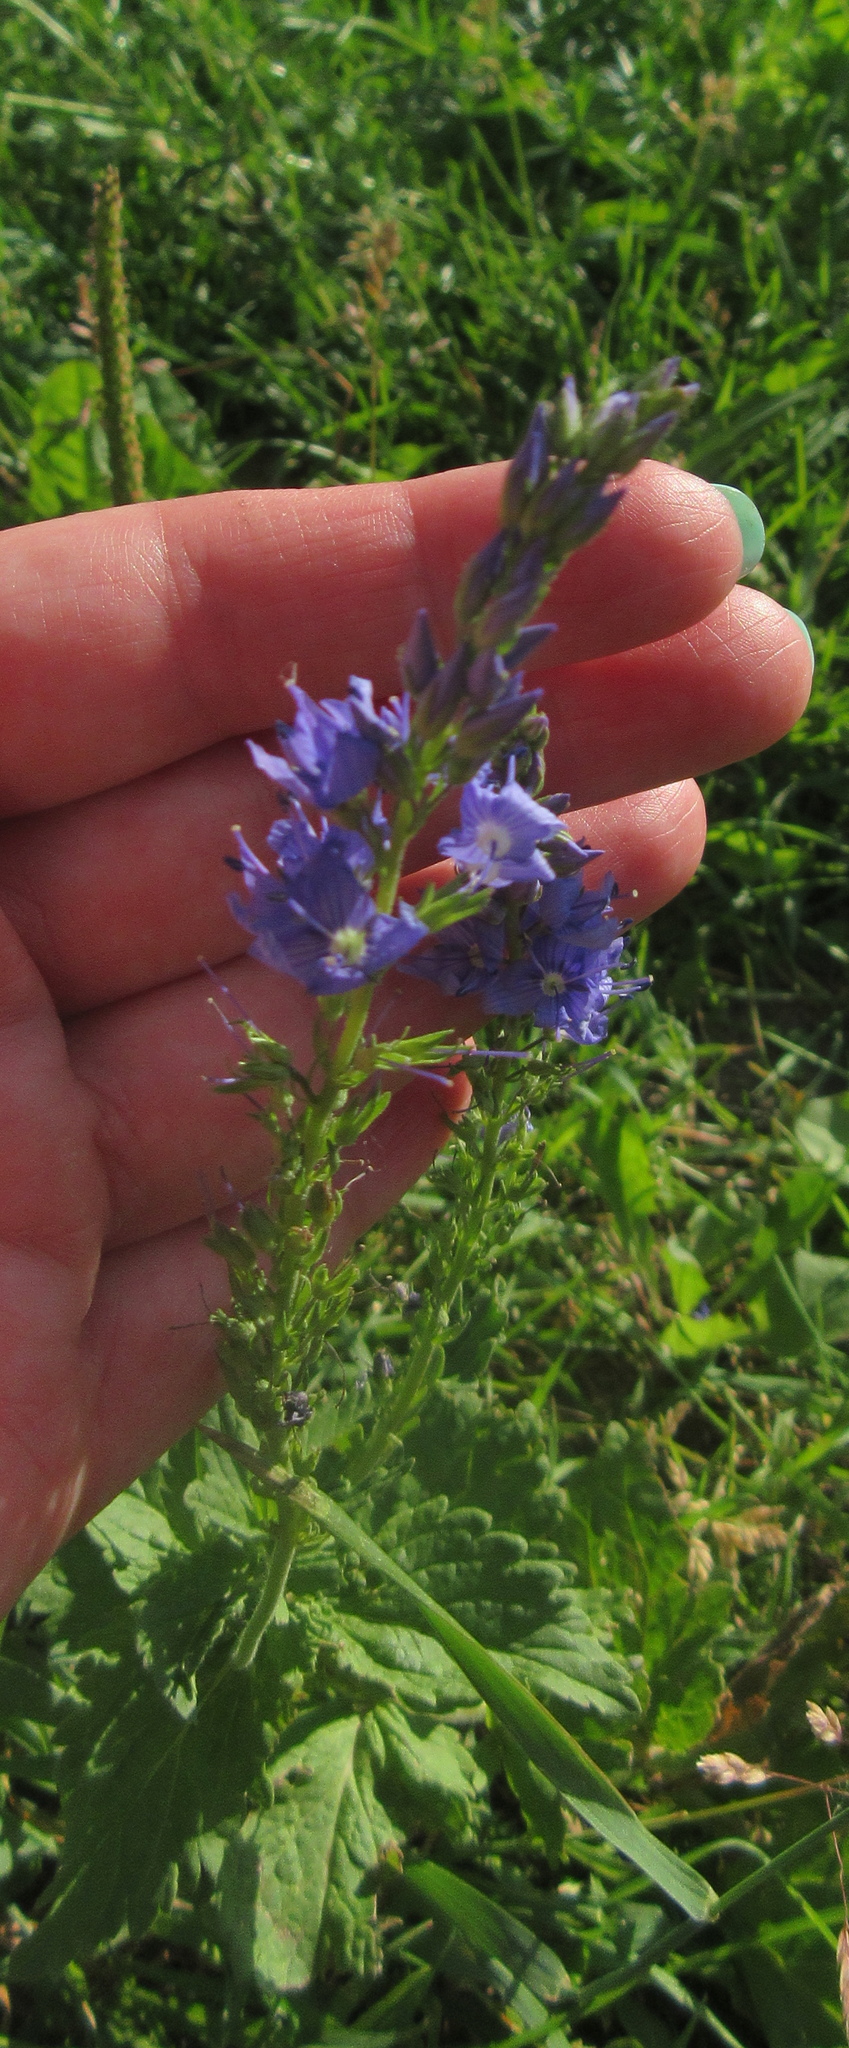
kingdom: Plantae
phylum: Tracheophyta
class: Magnoliopsida
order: Lamiales
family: Plantaginaceae
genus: Veronica
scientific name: Veronica teucrium
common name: Large speedwell
